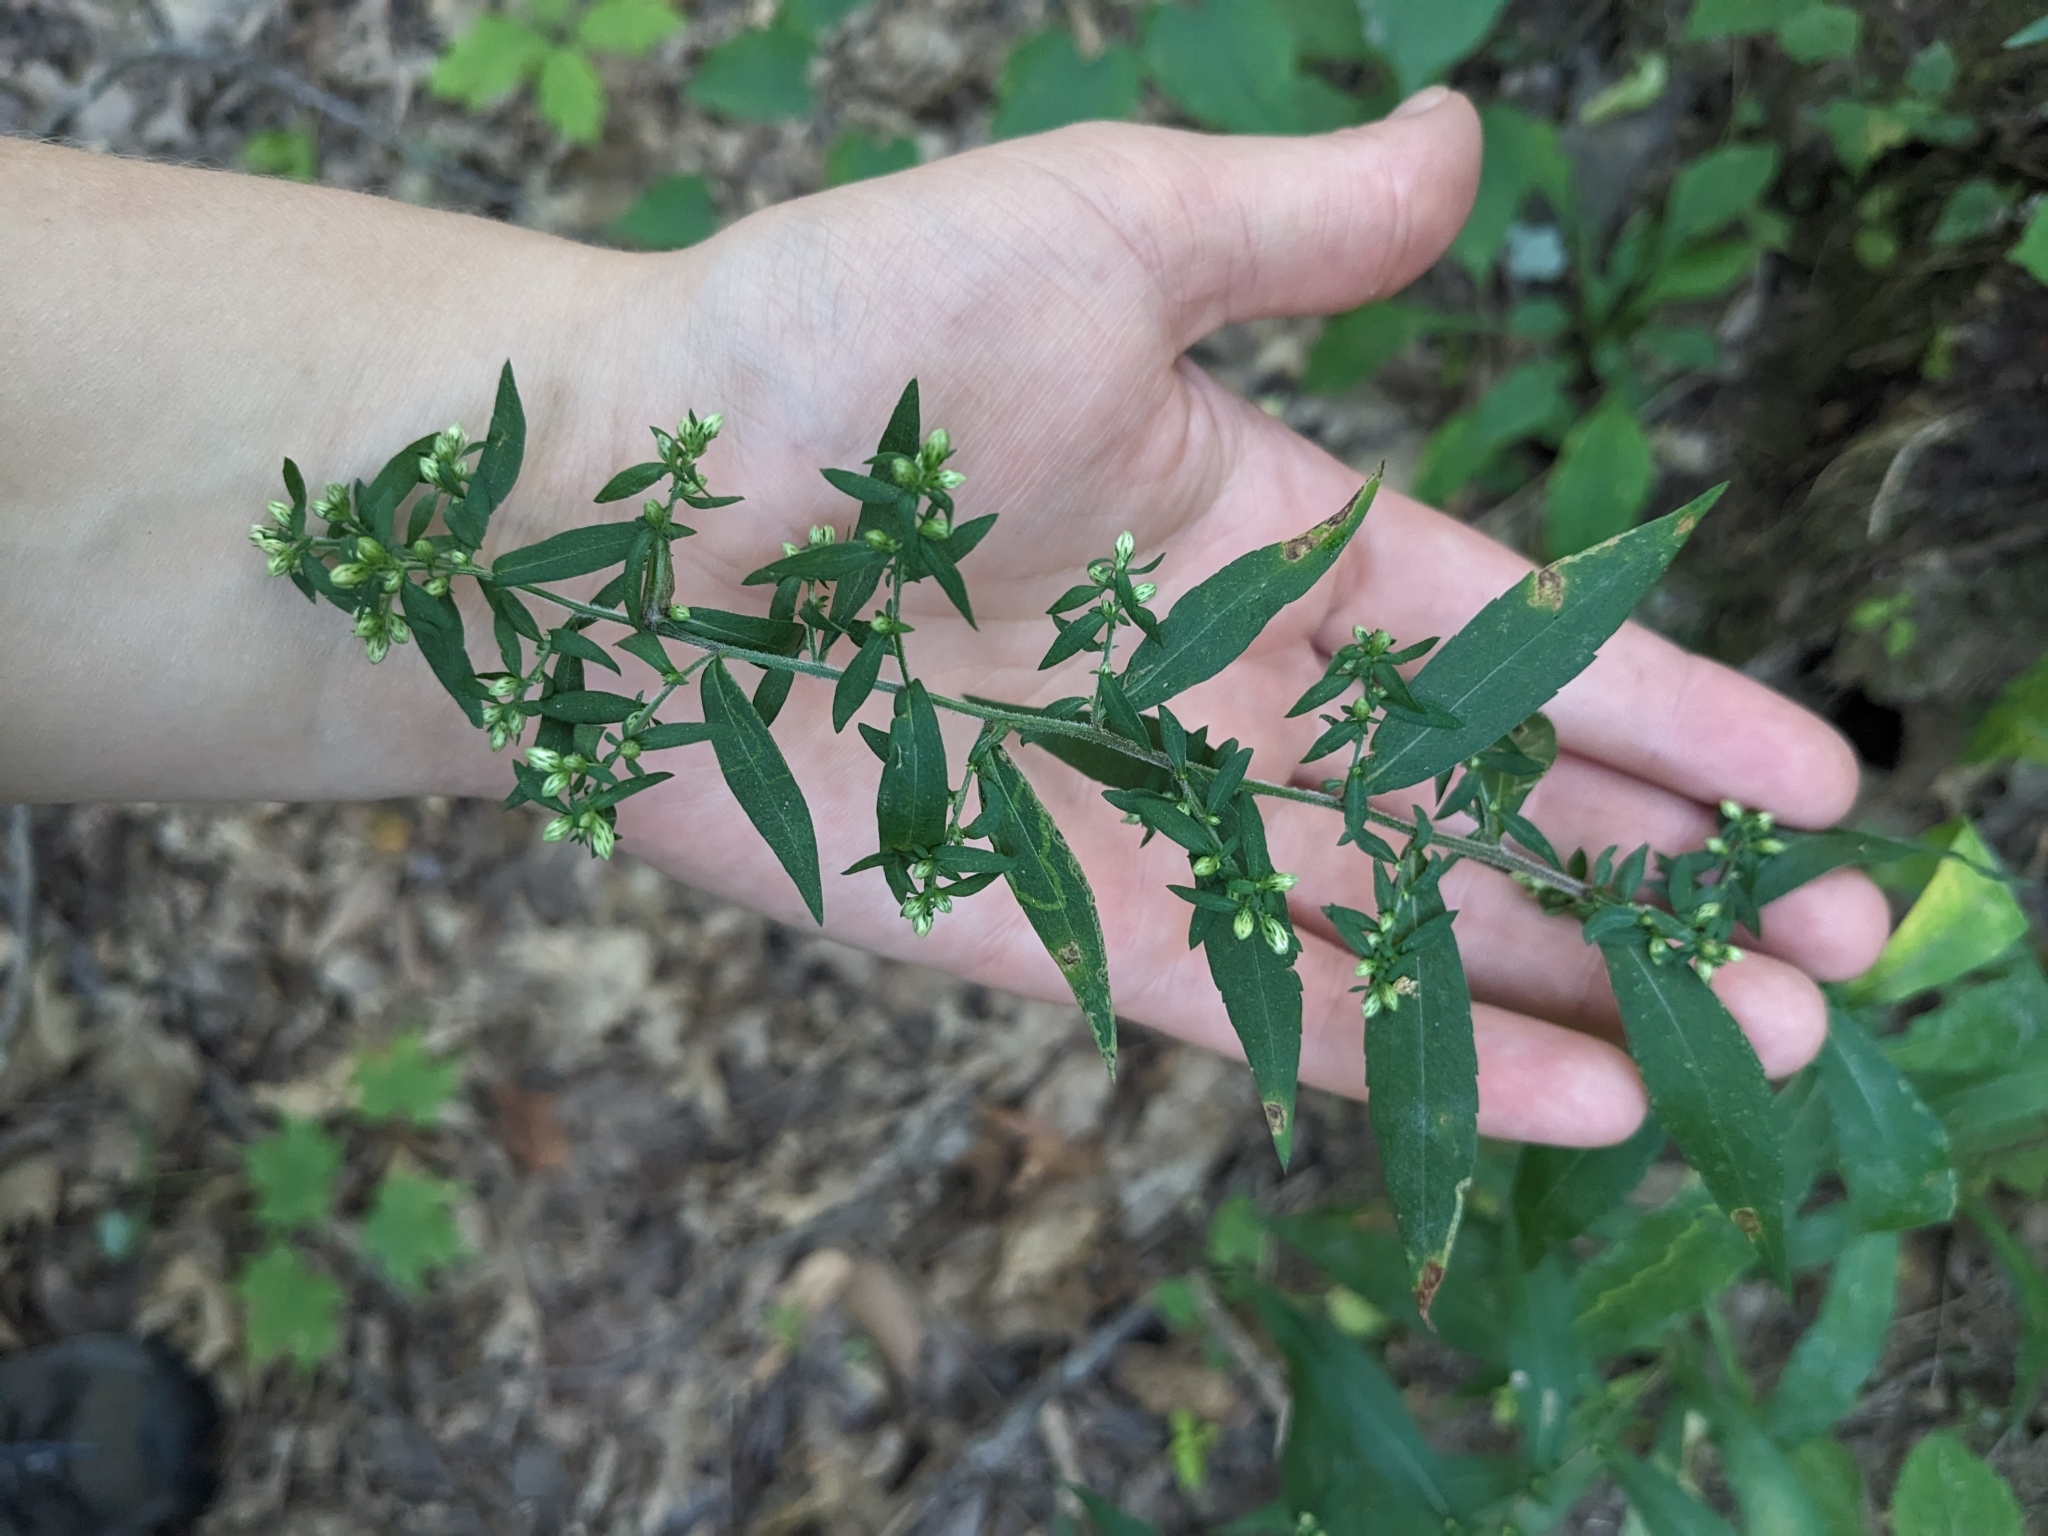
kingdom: Plantae
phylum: Tracheophyta
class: Magnoliopsida
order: Asterales
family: Asteraceae
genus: Symphyotrichum
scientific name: Symphyotrichum lateriflorum
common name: Calico aster
